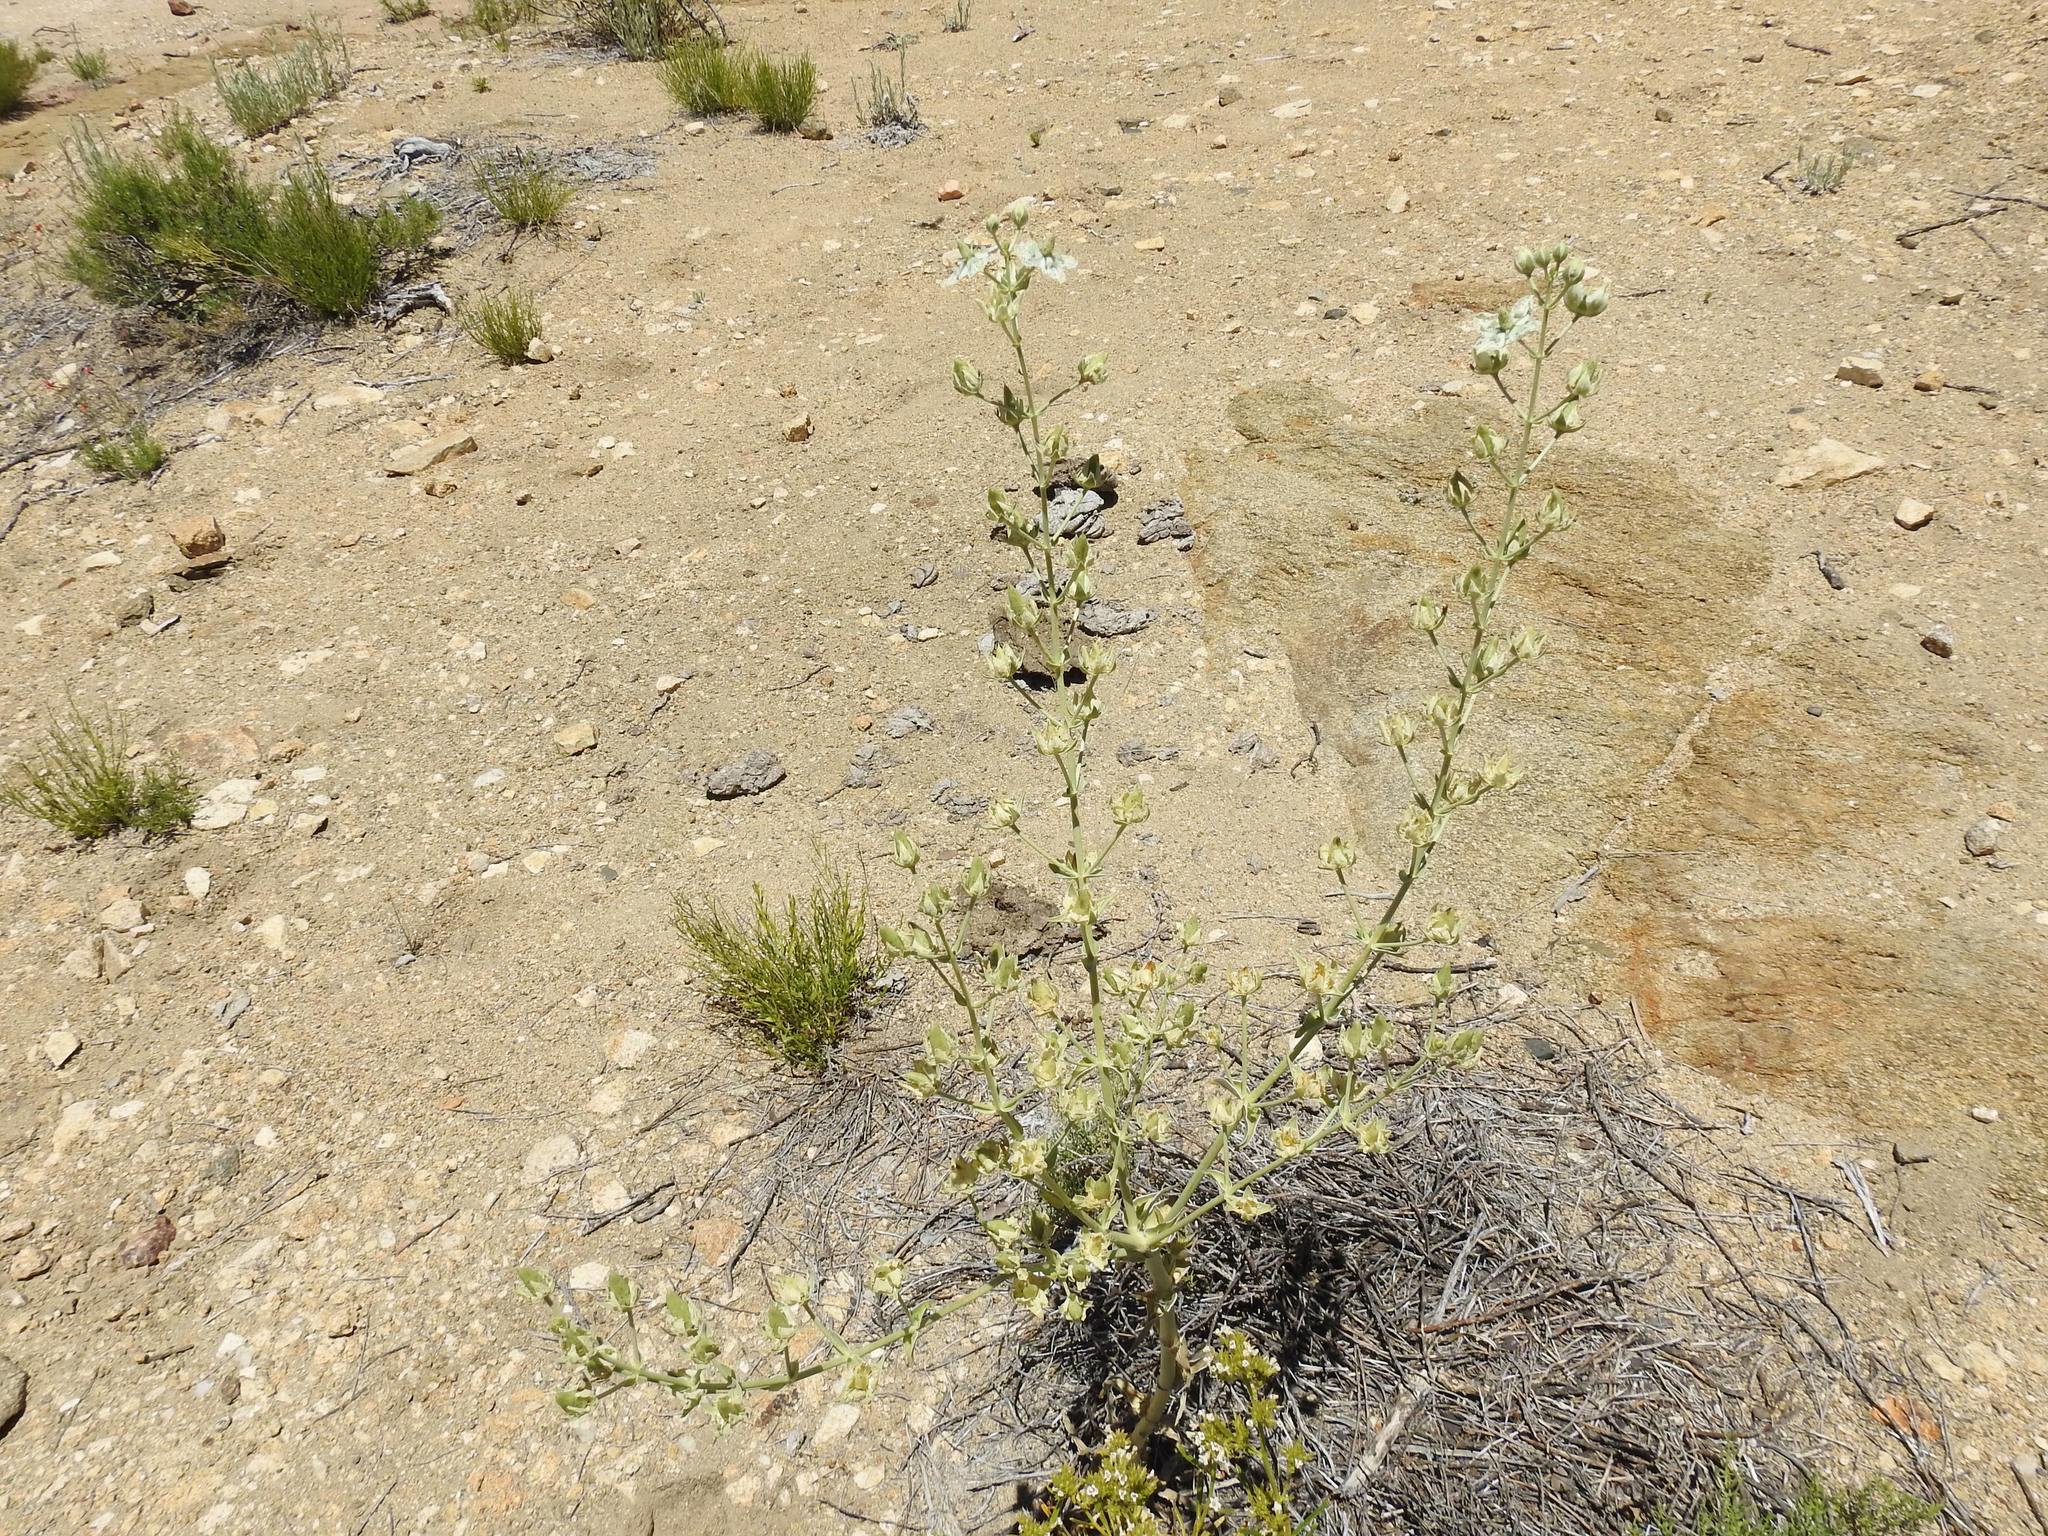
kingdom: Plantae
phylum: Tracheophyta
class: Magnoliopsida
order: Gentianales
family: Gentianaceae
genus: Frasera
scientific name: Frasera parryi
